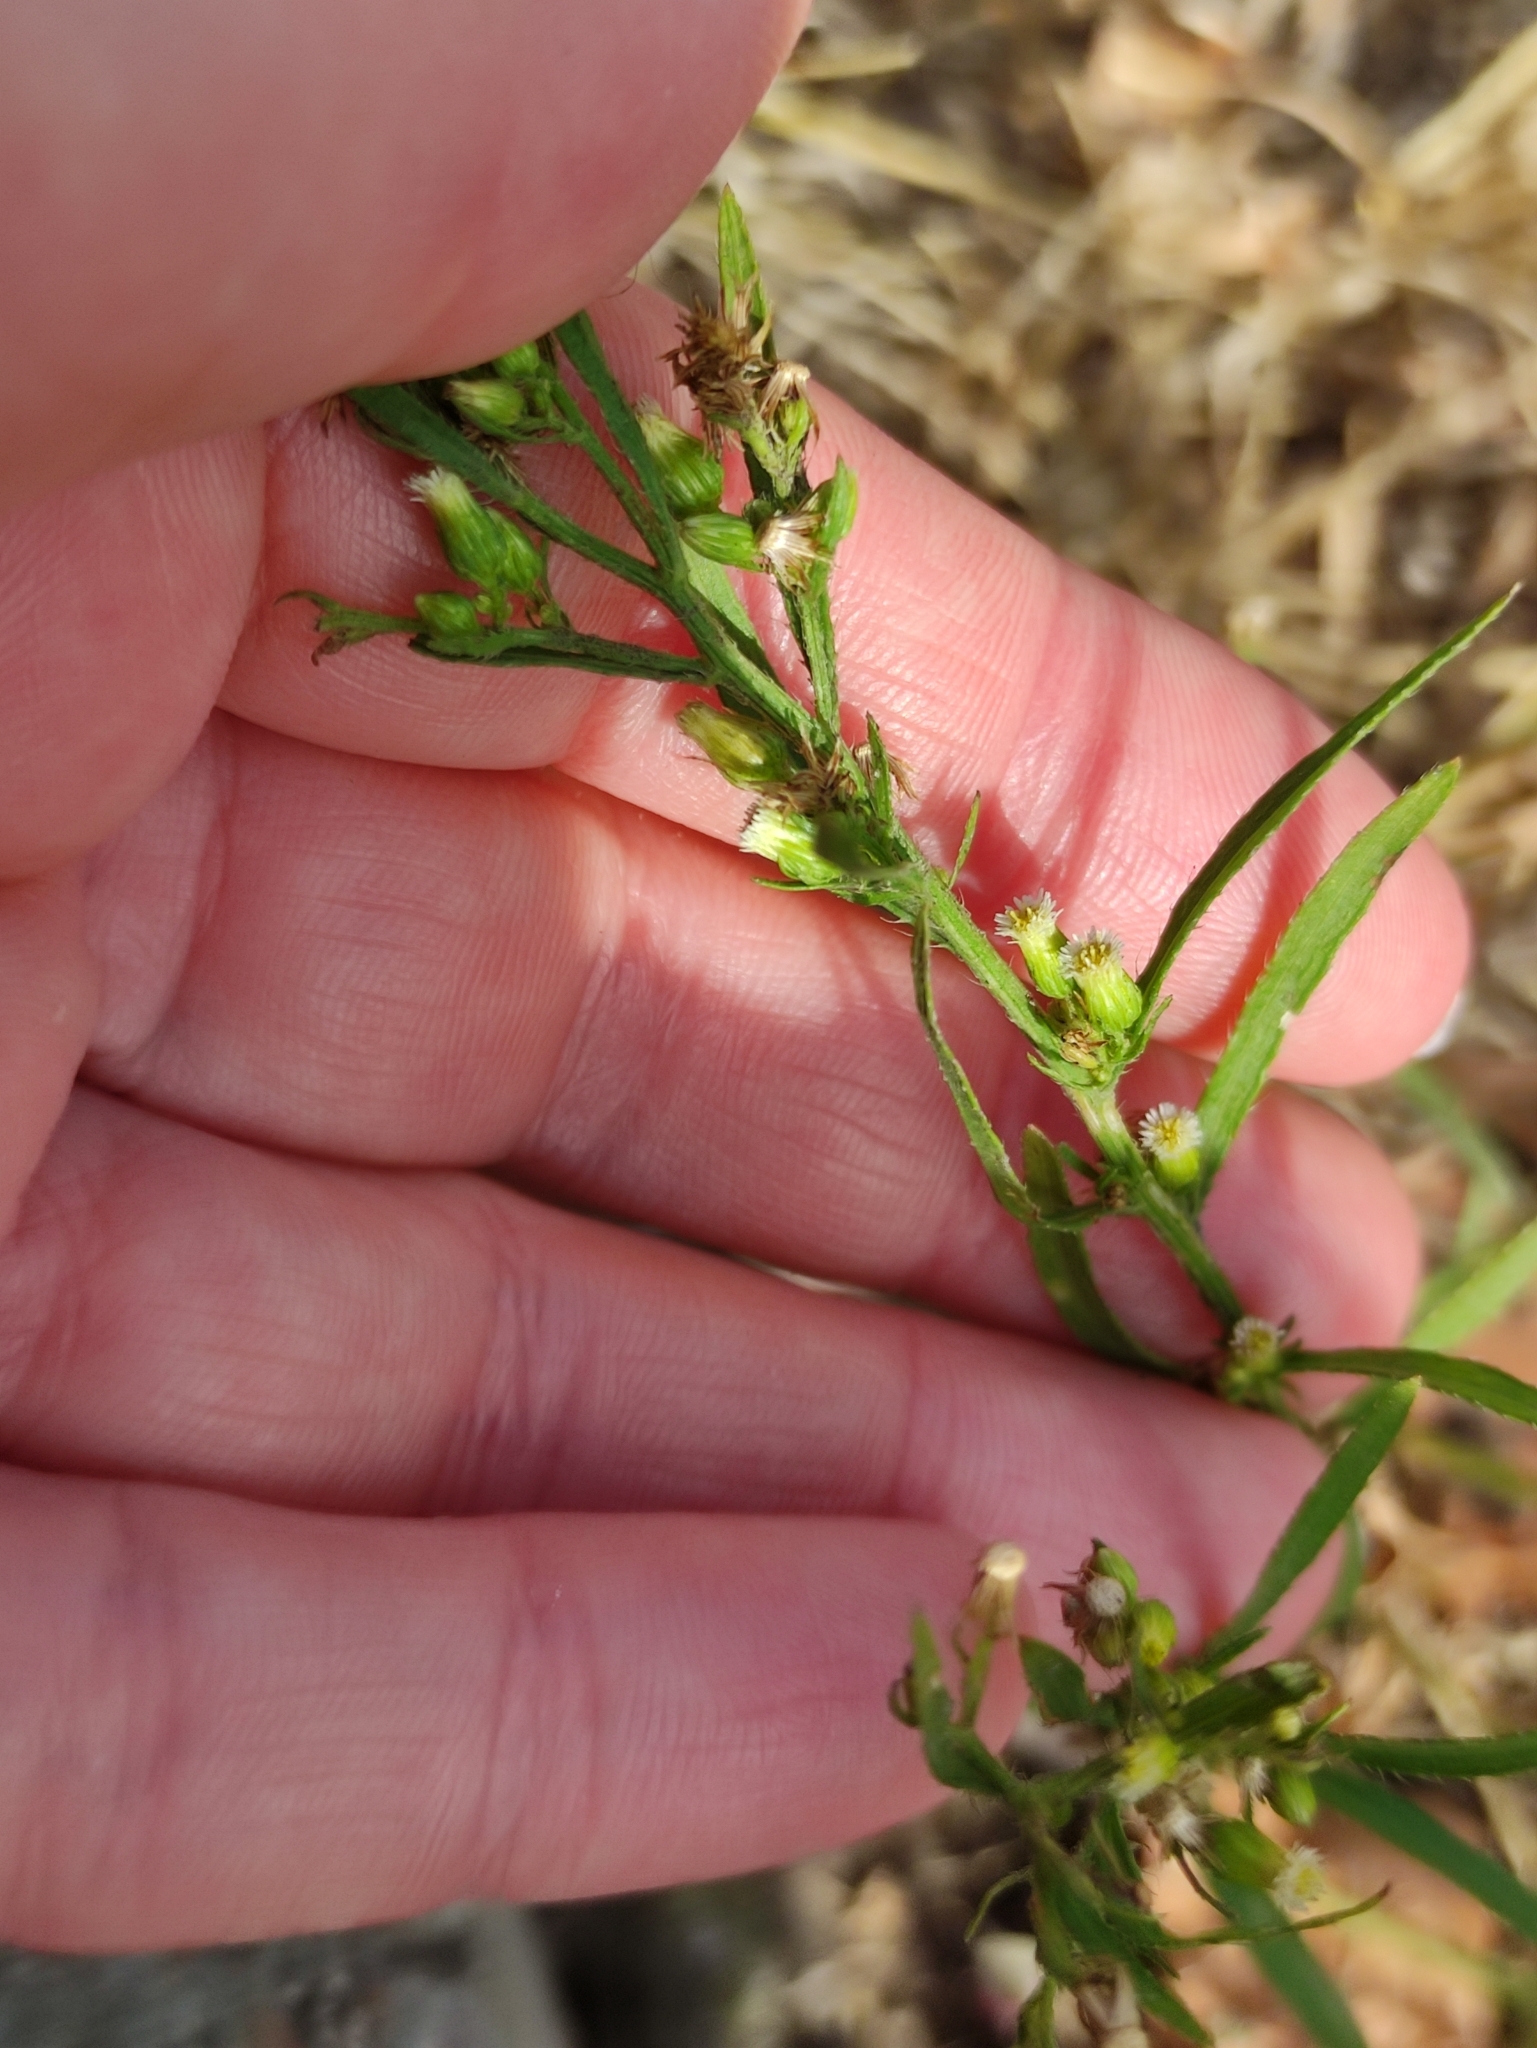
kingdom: Plantae
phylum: Tracheophyta
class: Magnoliopsida
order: Asterales
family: Asteraceae
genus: Erigeron
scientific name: Erigeron canadensis
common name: Canadian fleabane
